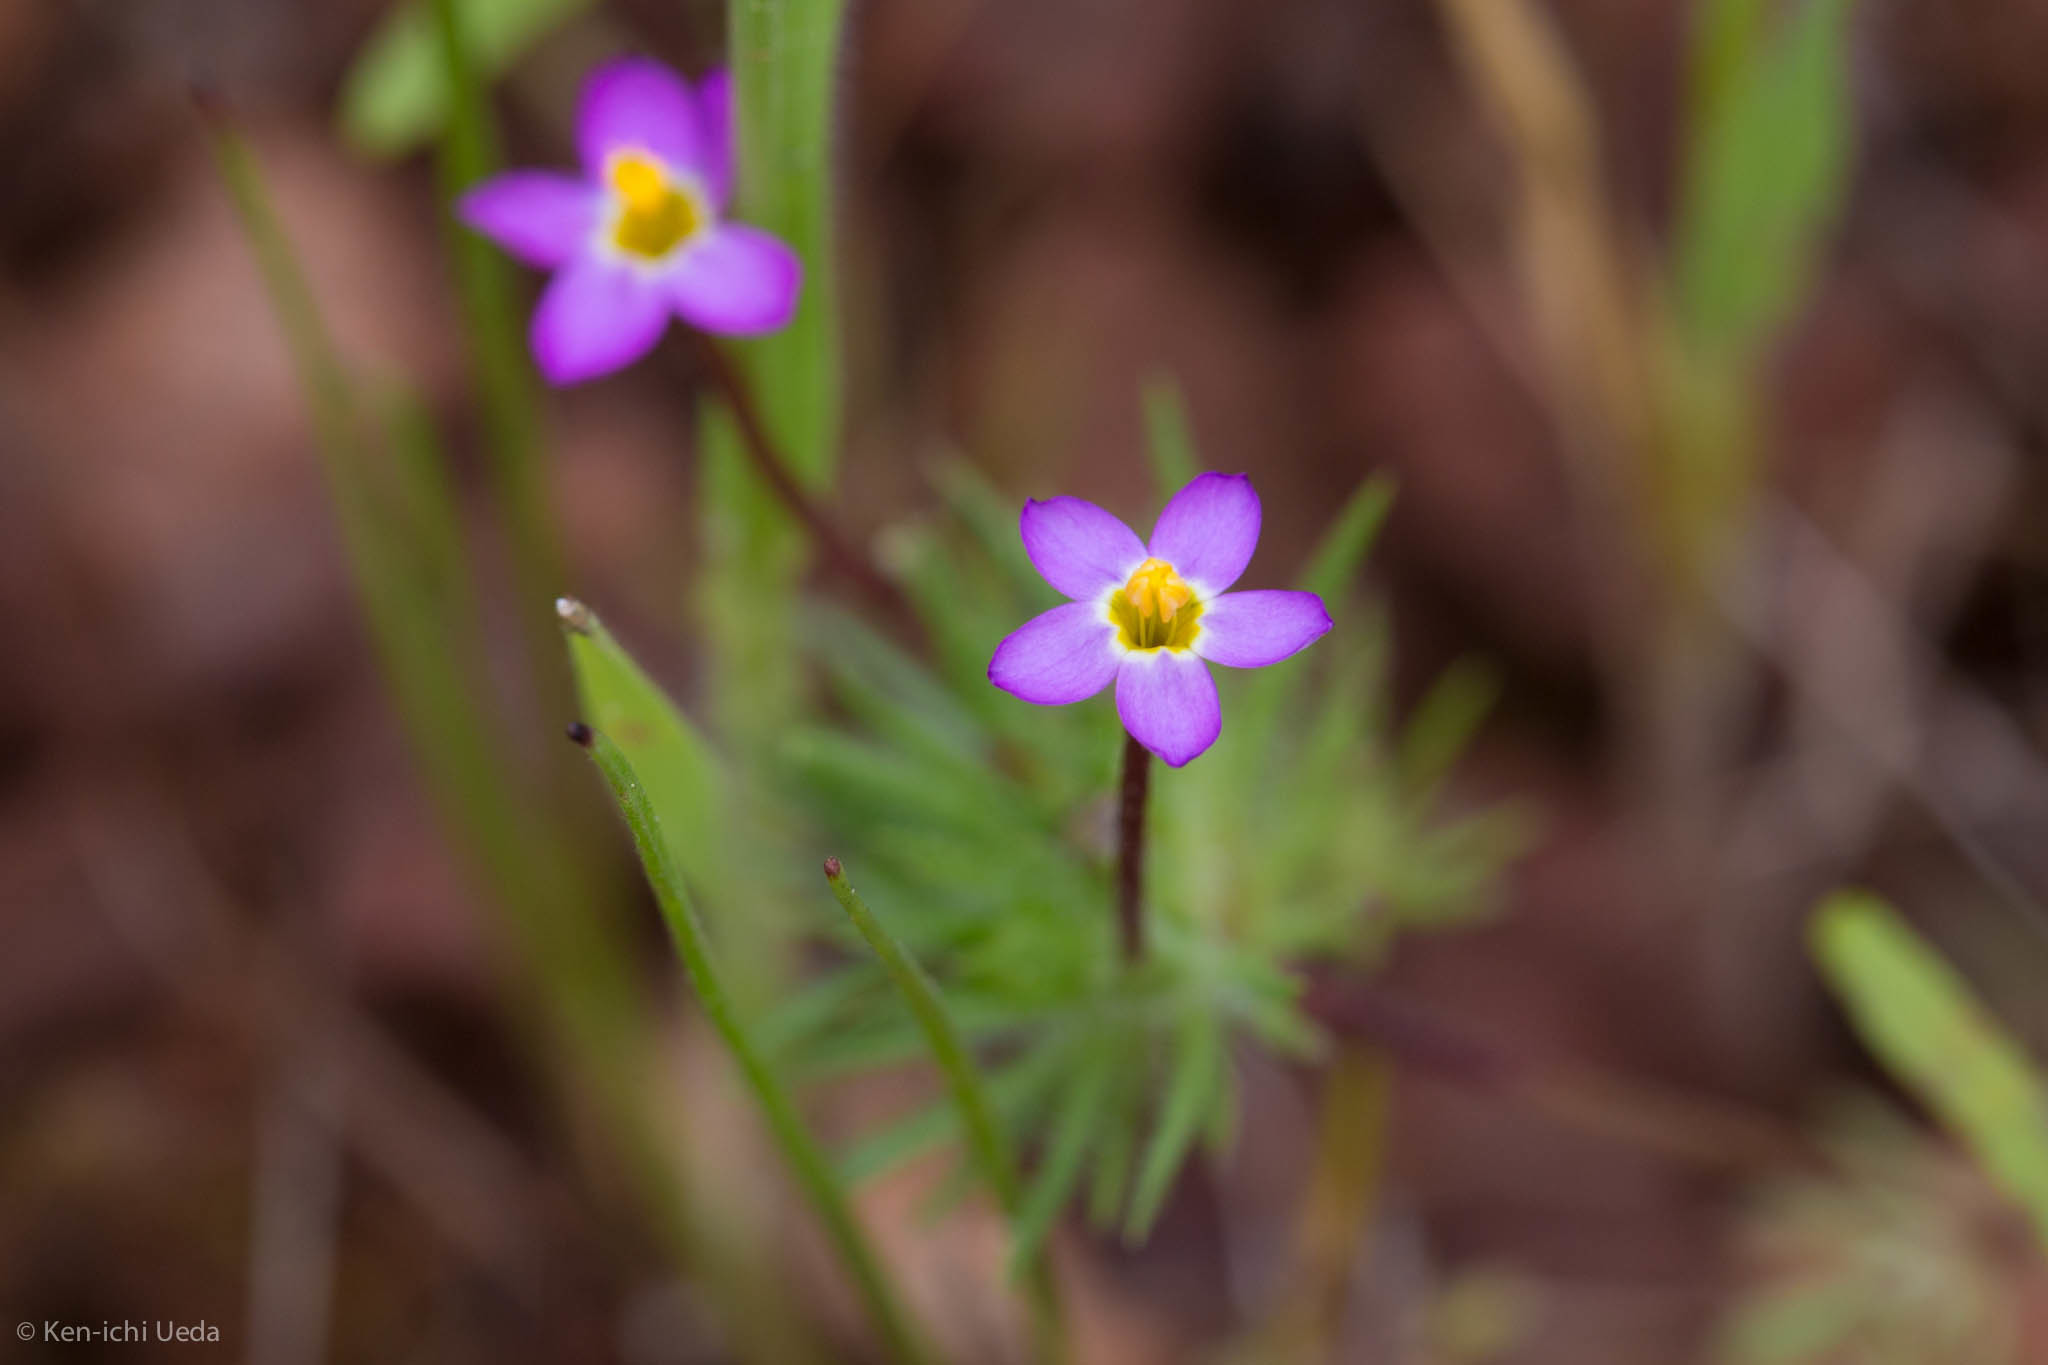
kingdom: Plantae
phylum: Tracheophyta
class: Magnoliopsida
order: Ericales
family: Polemoniaceae
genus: Leptosiphon
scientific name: Leptosiphon bicolor
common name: True babystars
